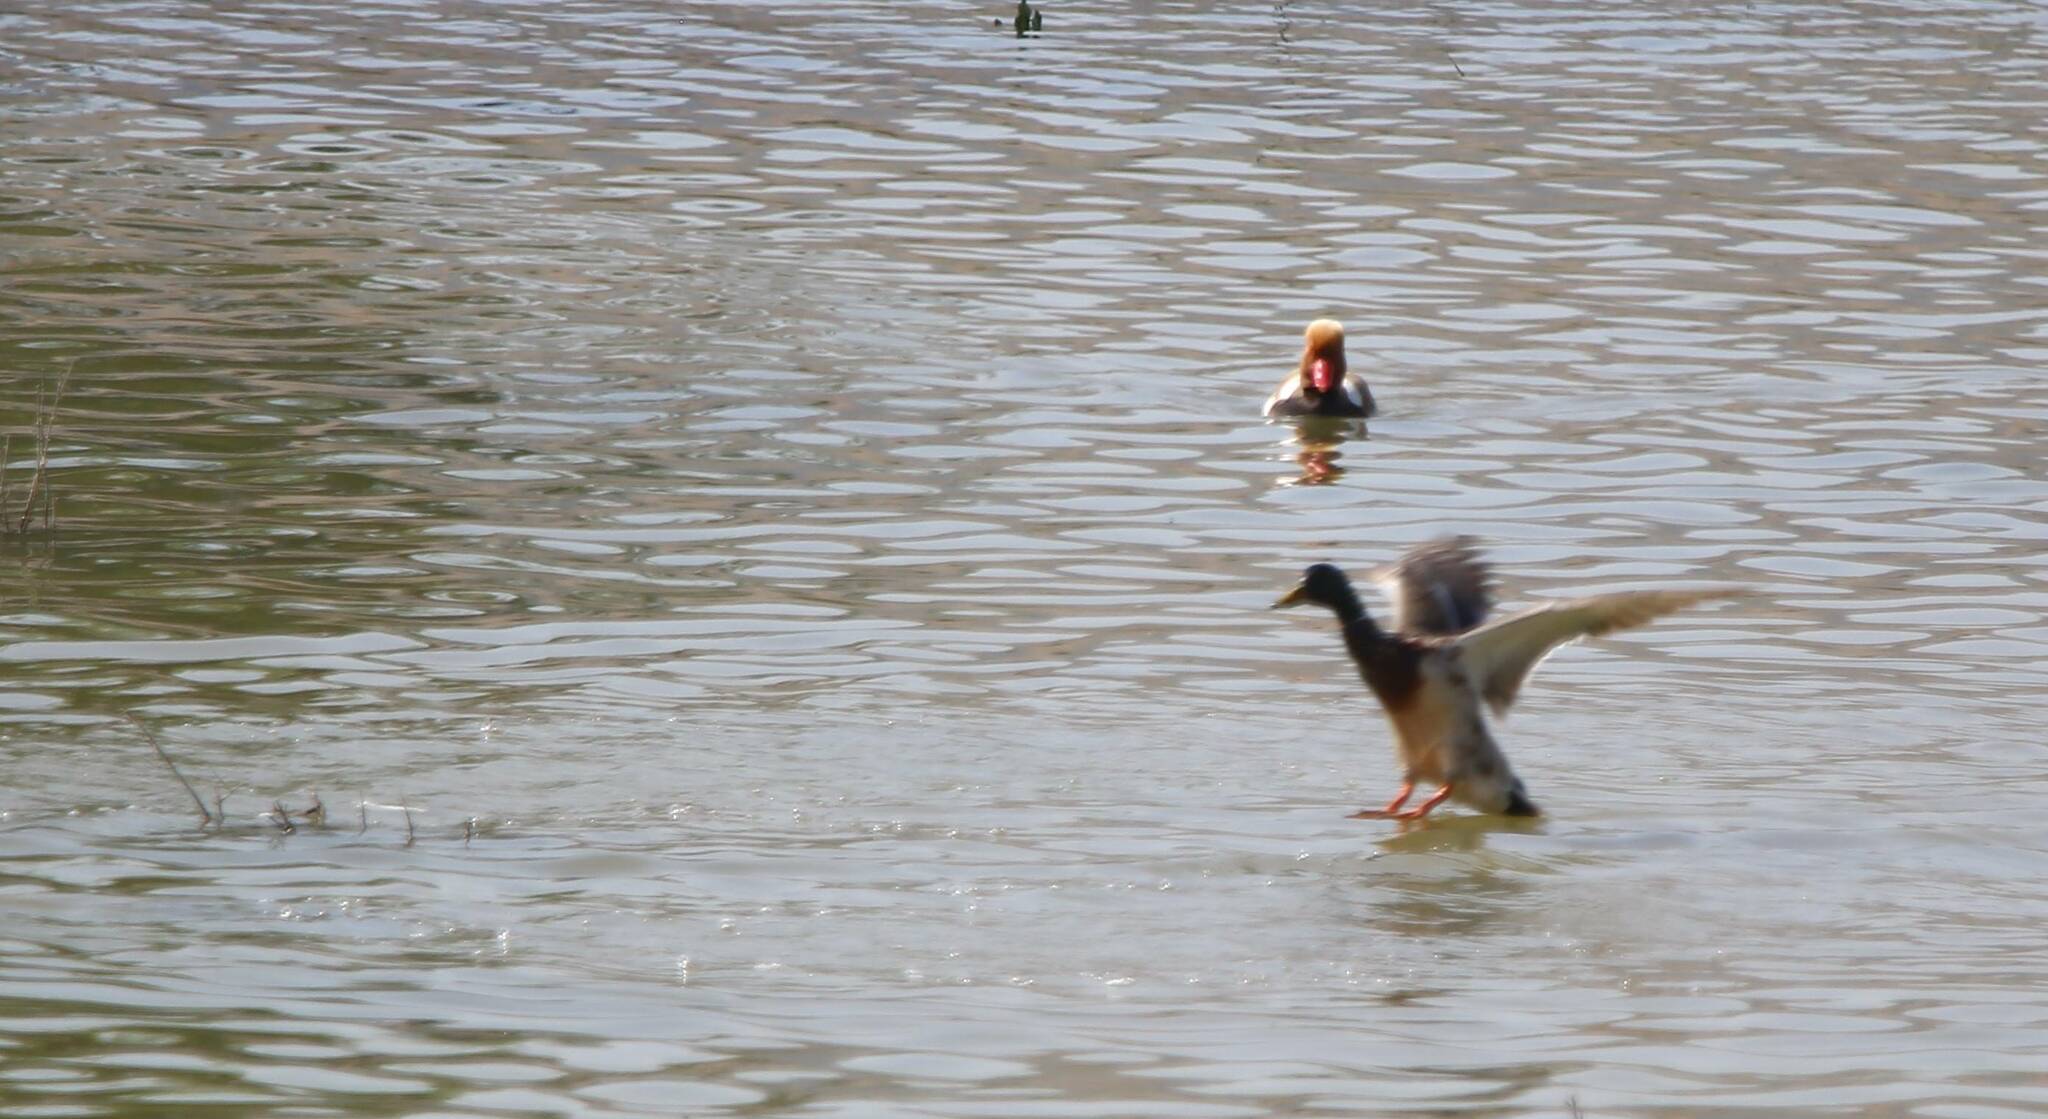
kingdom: Animalia
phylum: Chordata
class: Aves
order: Anseriformes
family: Anatidae
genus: Anas
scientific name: Anas platyrhynchos
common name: Mallard
